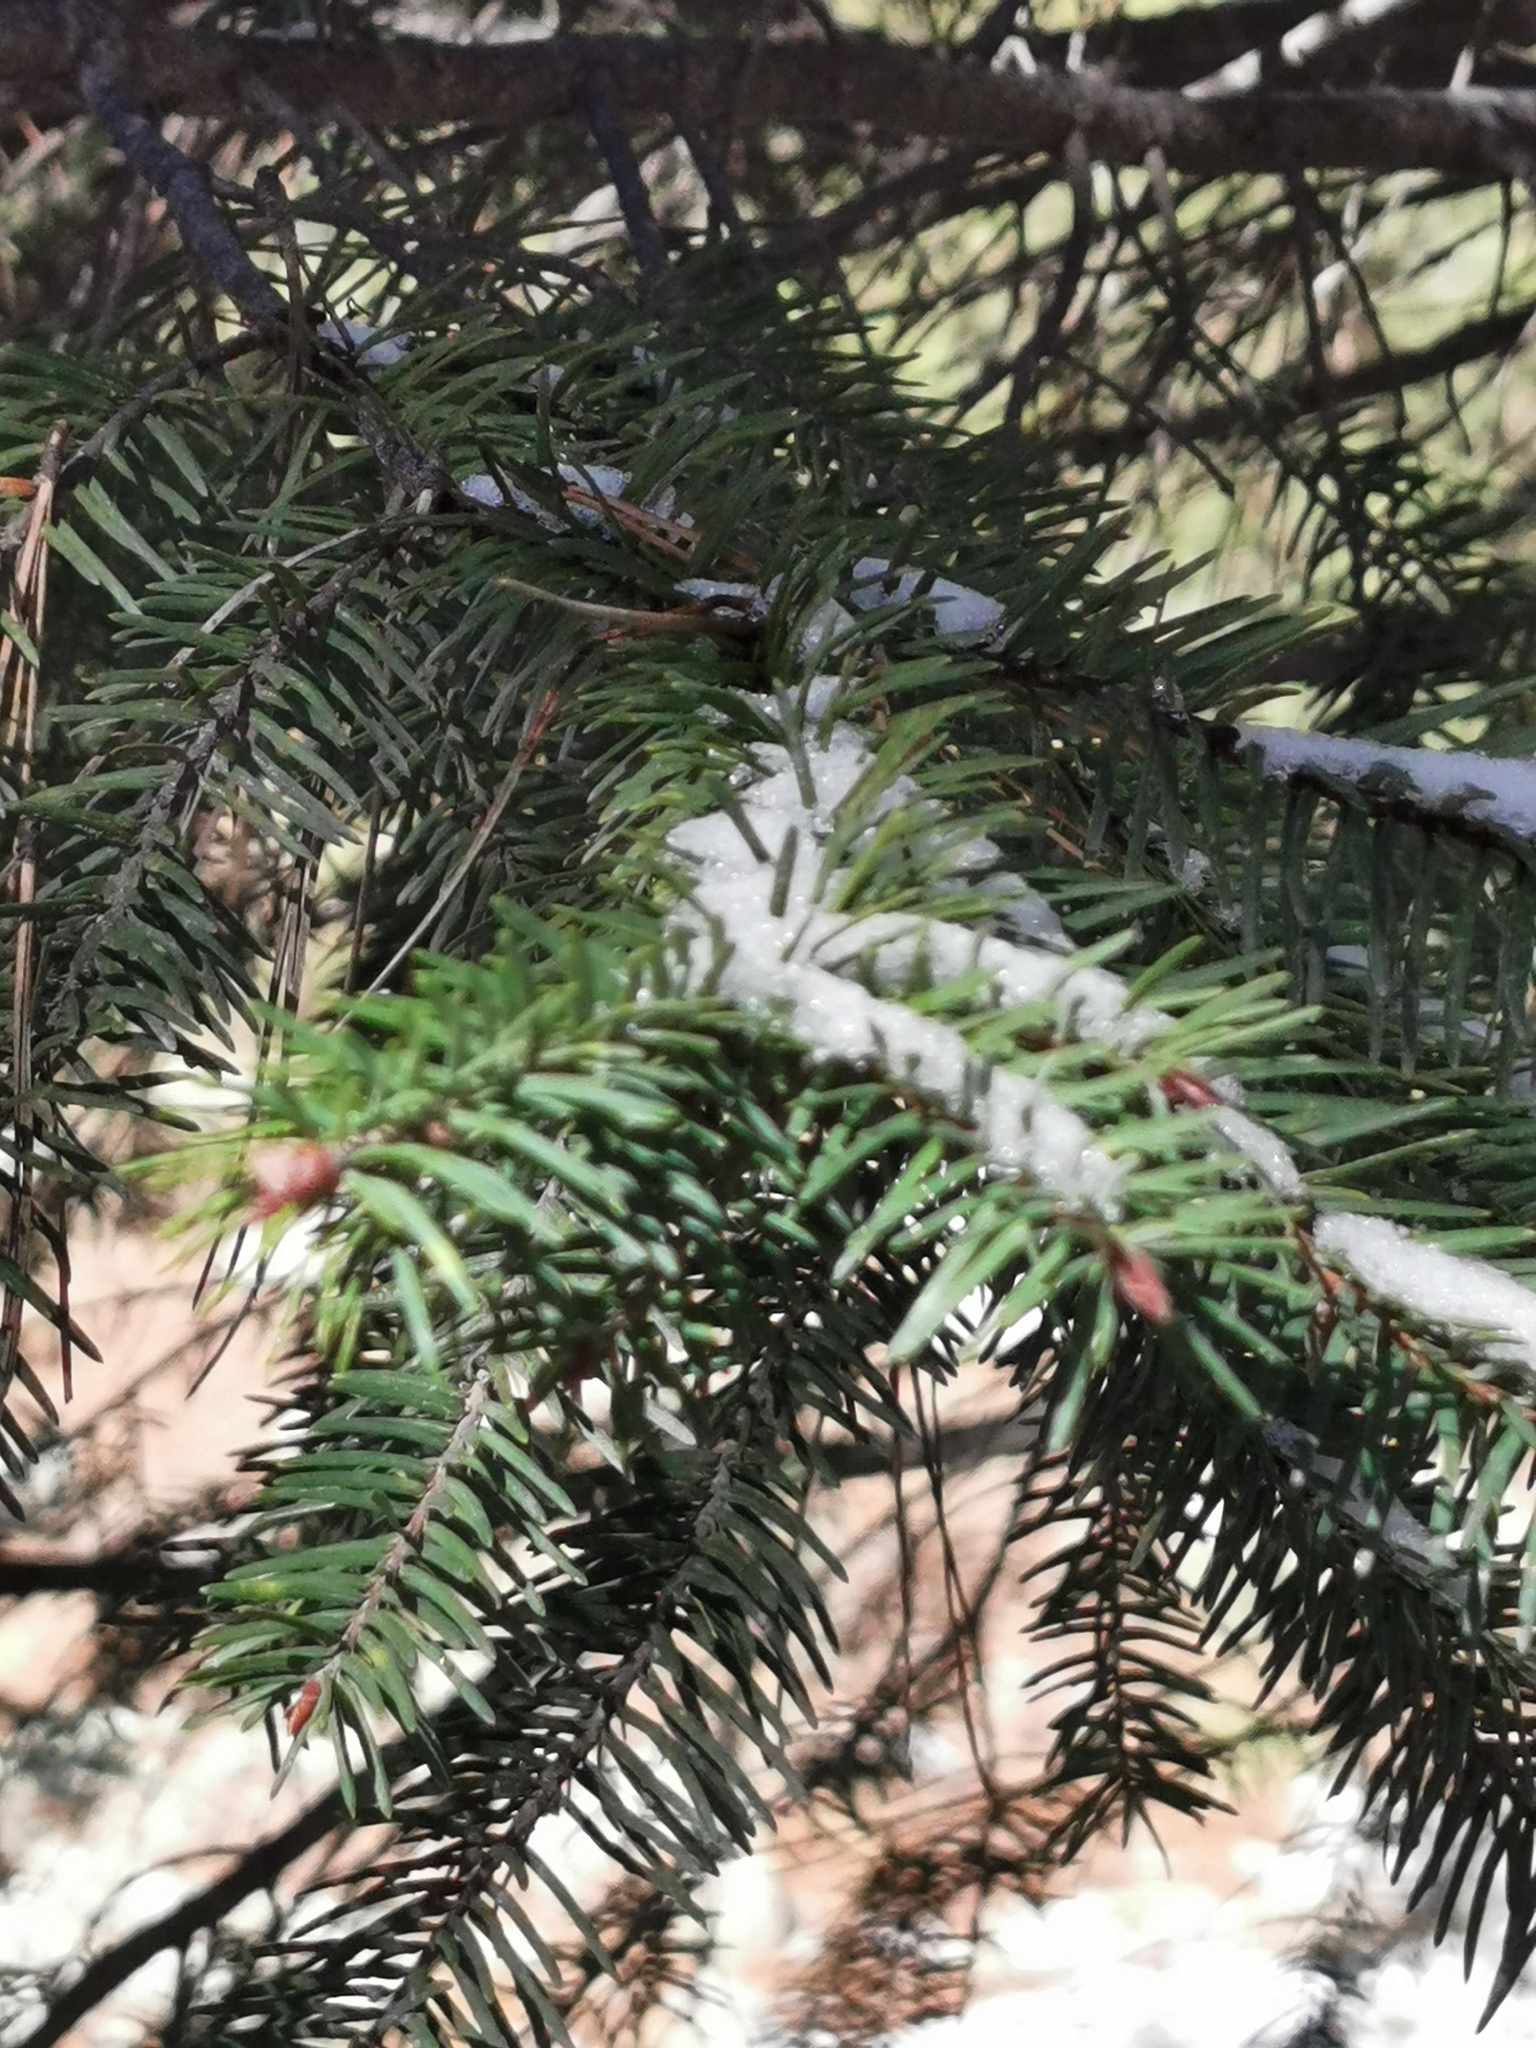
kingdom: Plantae
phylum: Tracheophyta
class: Pinopsida
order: Pinales
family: Pinaceae
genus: Pseudotsuga
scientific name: Pseudotsuga menziesii
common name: Douglas fir
